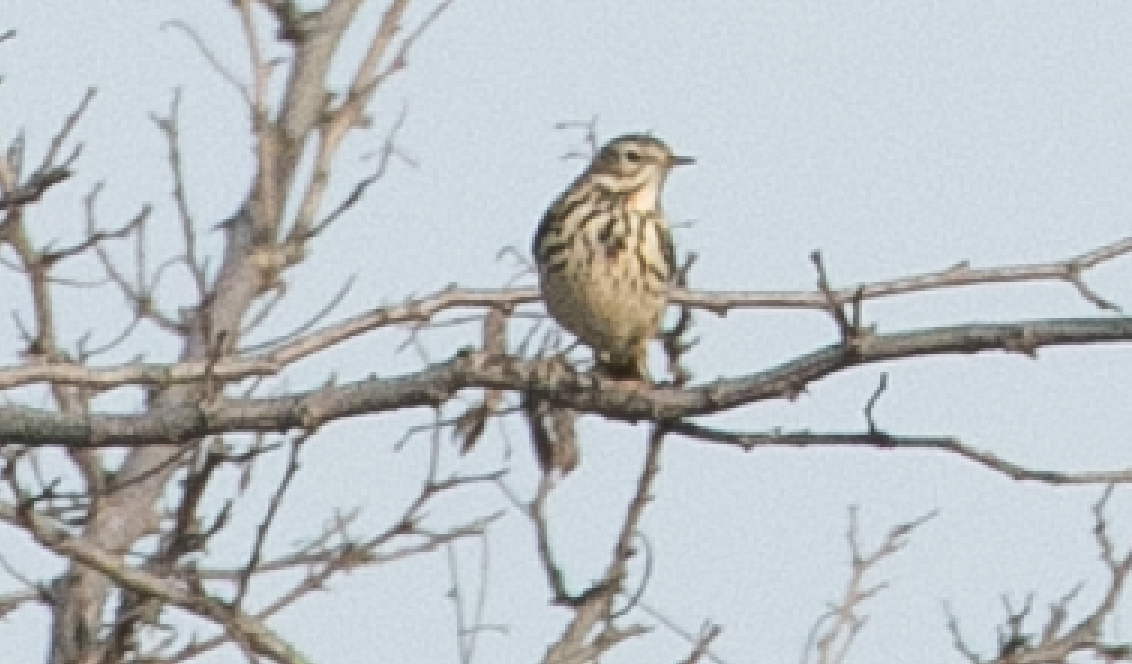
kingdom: Animalia
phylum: Chordata
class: Aves
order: Passeriformes
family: Motacillidae
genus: Anthus
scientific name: Anthus pratensis
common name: Meadow pipit
